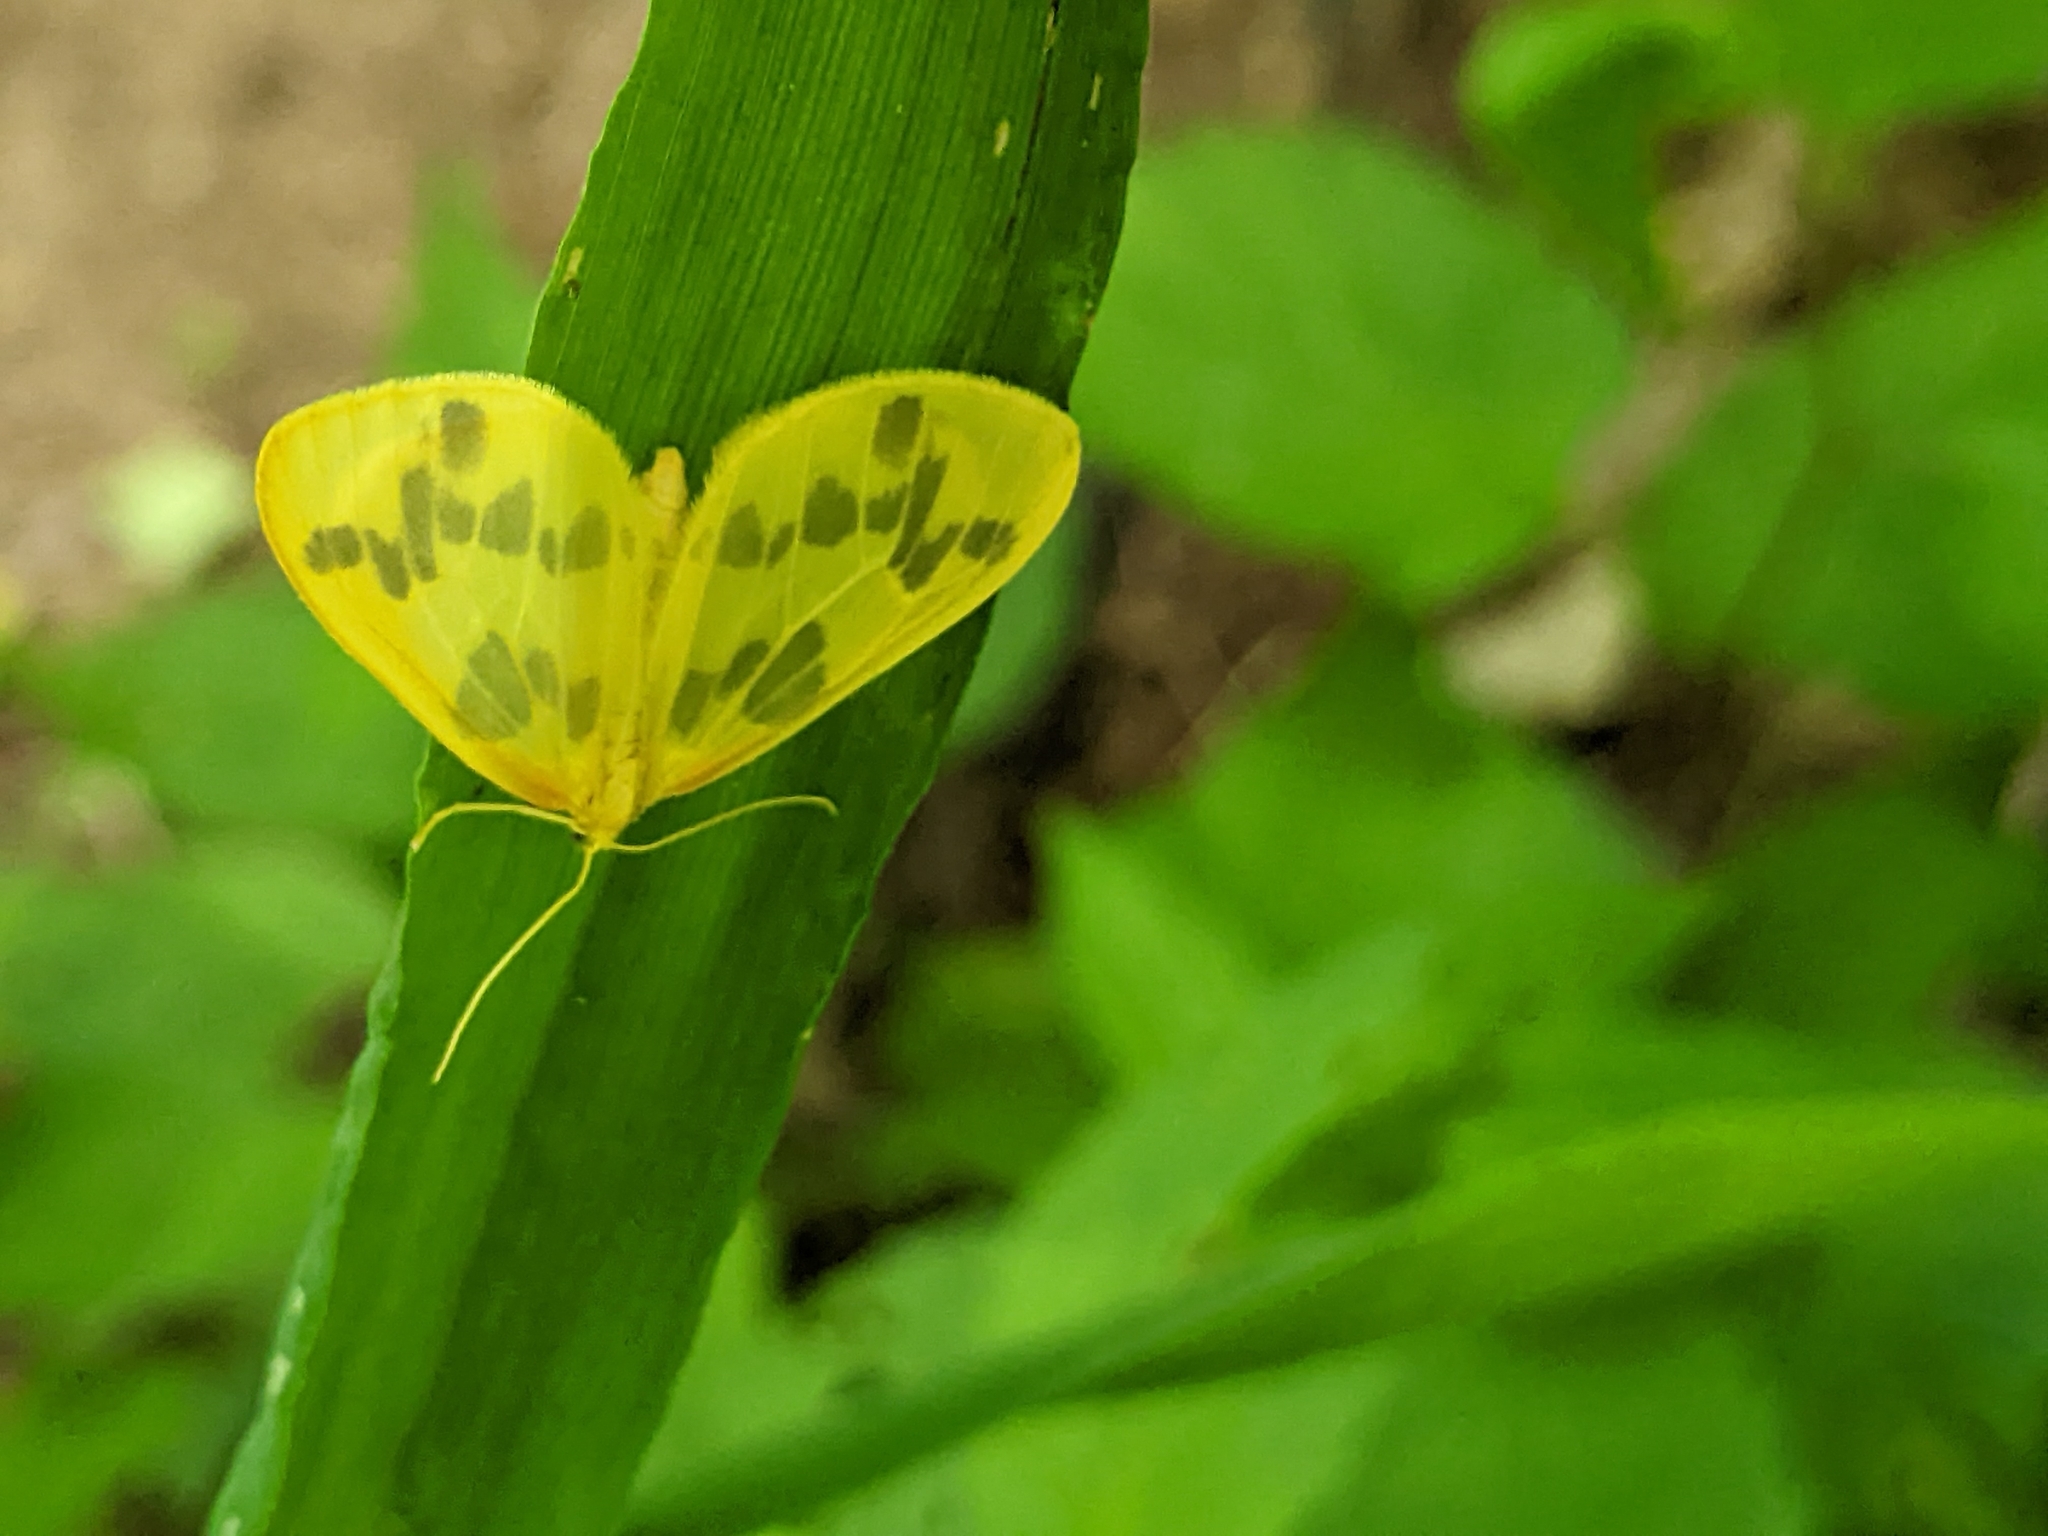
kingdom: Animalia
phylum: Arthropoda
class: Insecta
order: Lepidoptera
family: Geometridae
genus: Eubaphe
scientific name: Eubaphe mendica
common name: Beggar
